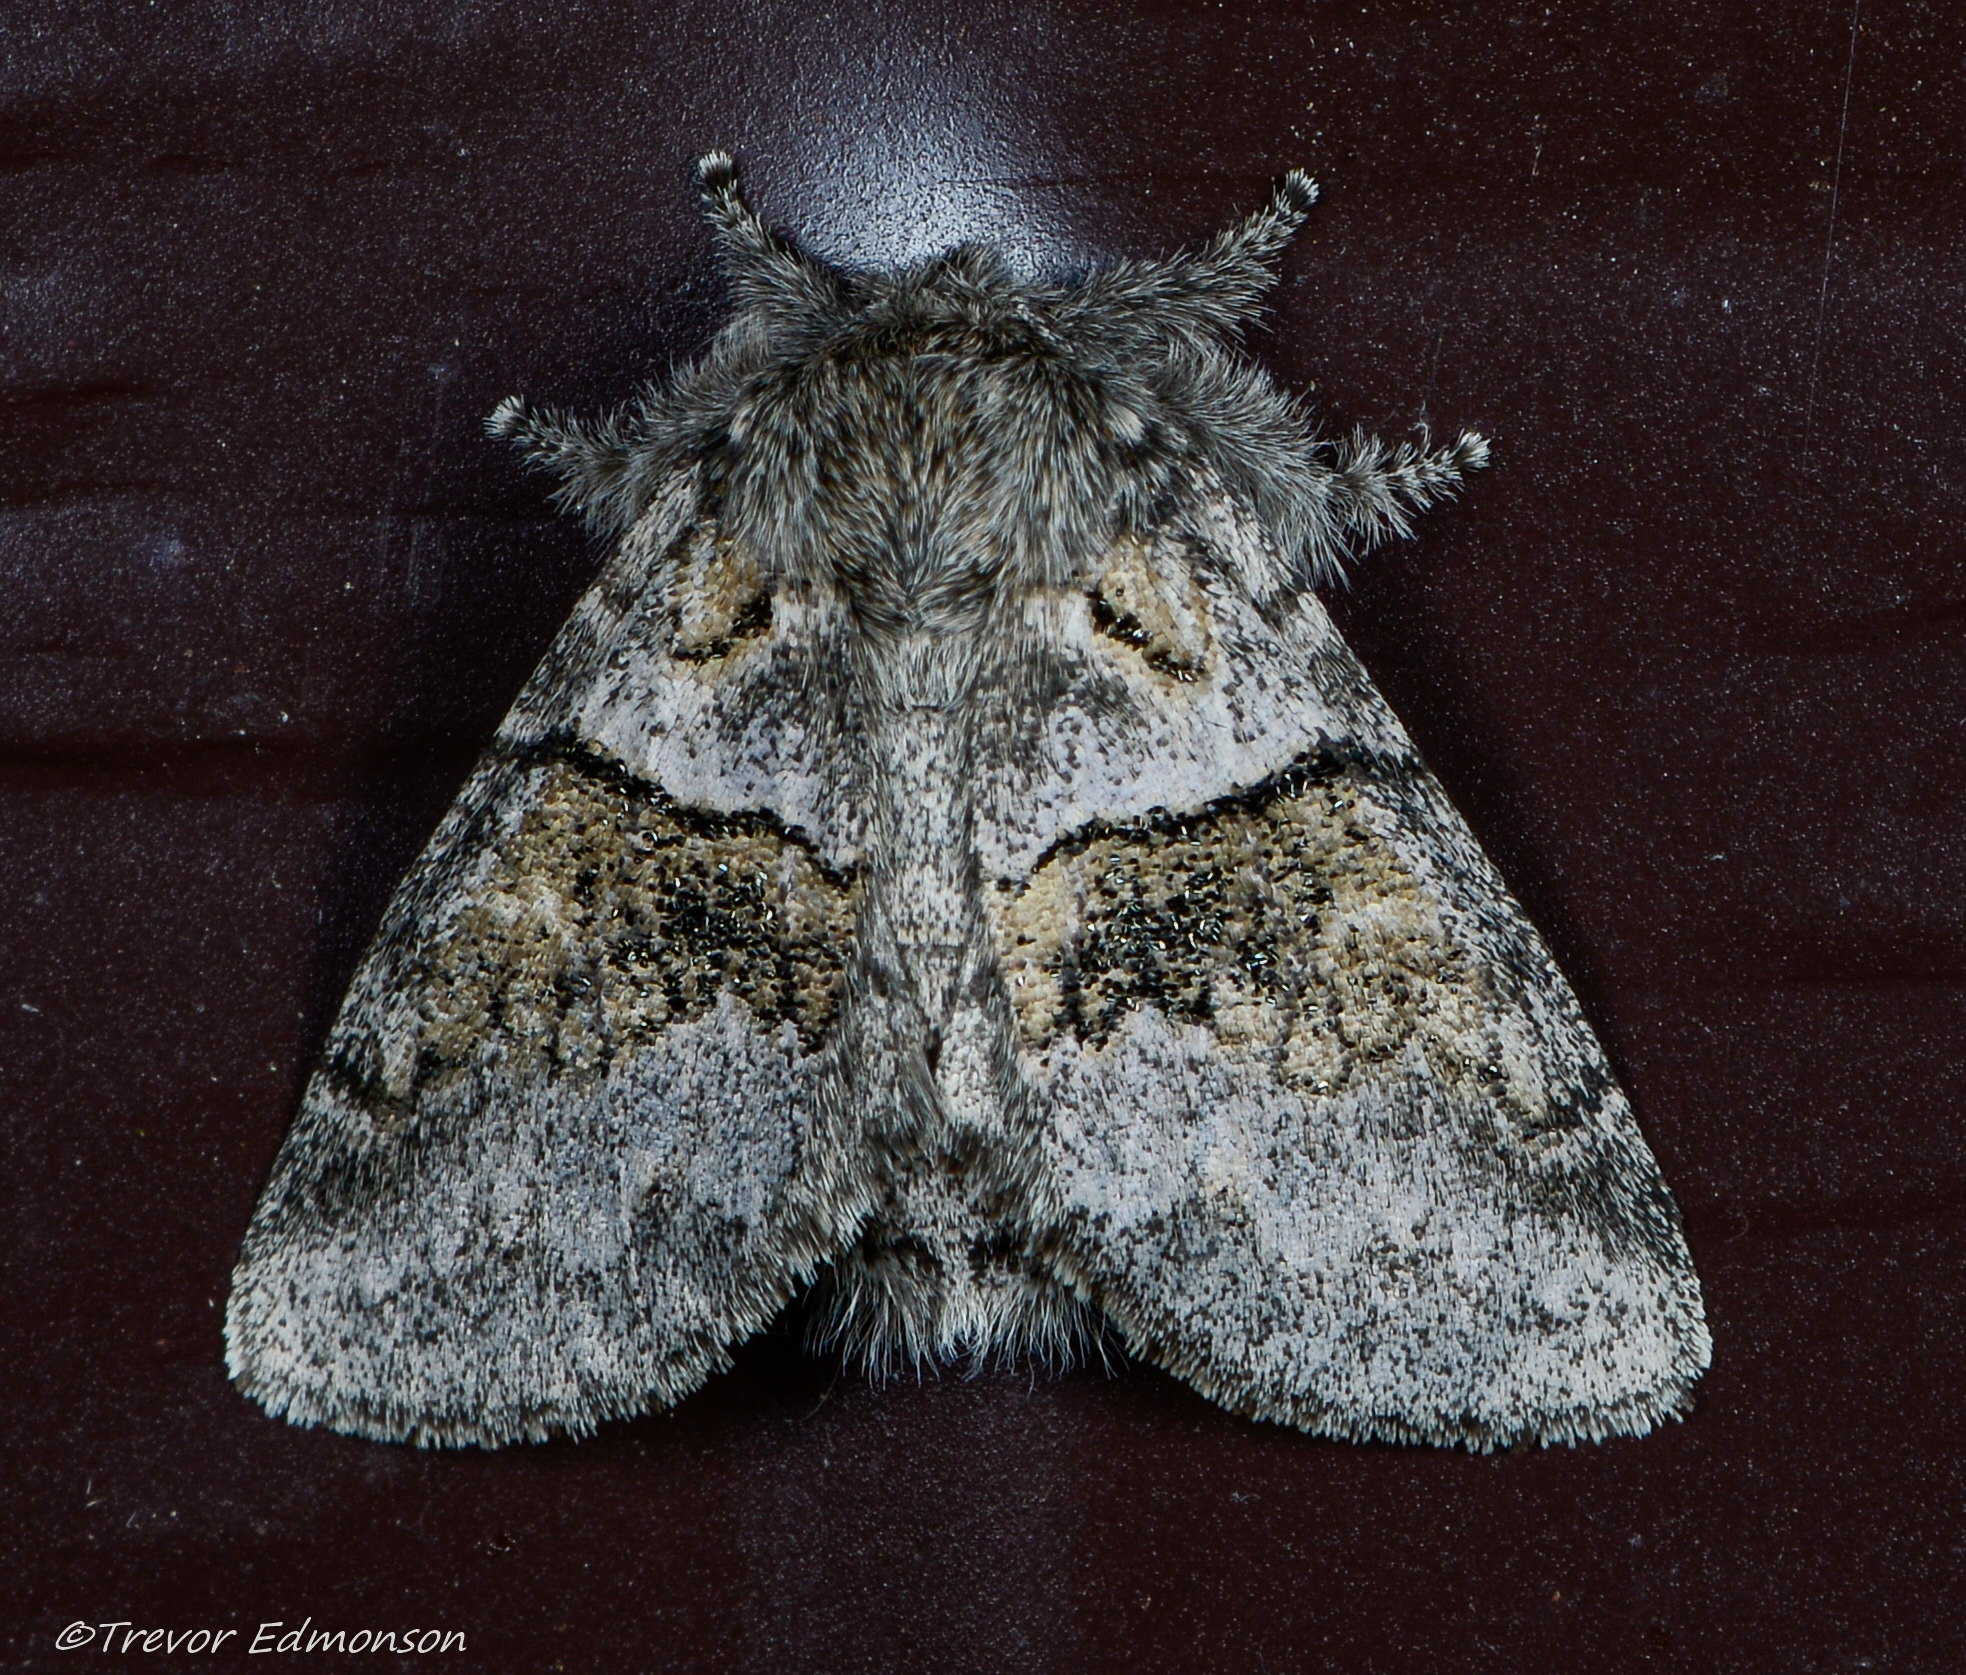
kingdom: Animalia
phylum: Arthropoda
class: Insecta
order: Lepidoptera
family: Notodontidae
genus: Gluphisia
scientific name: Gluphisia septentrionis
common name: Common gluphisia
